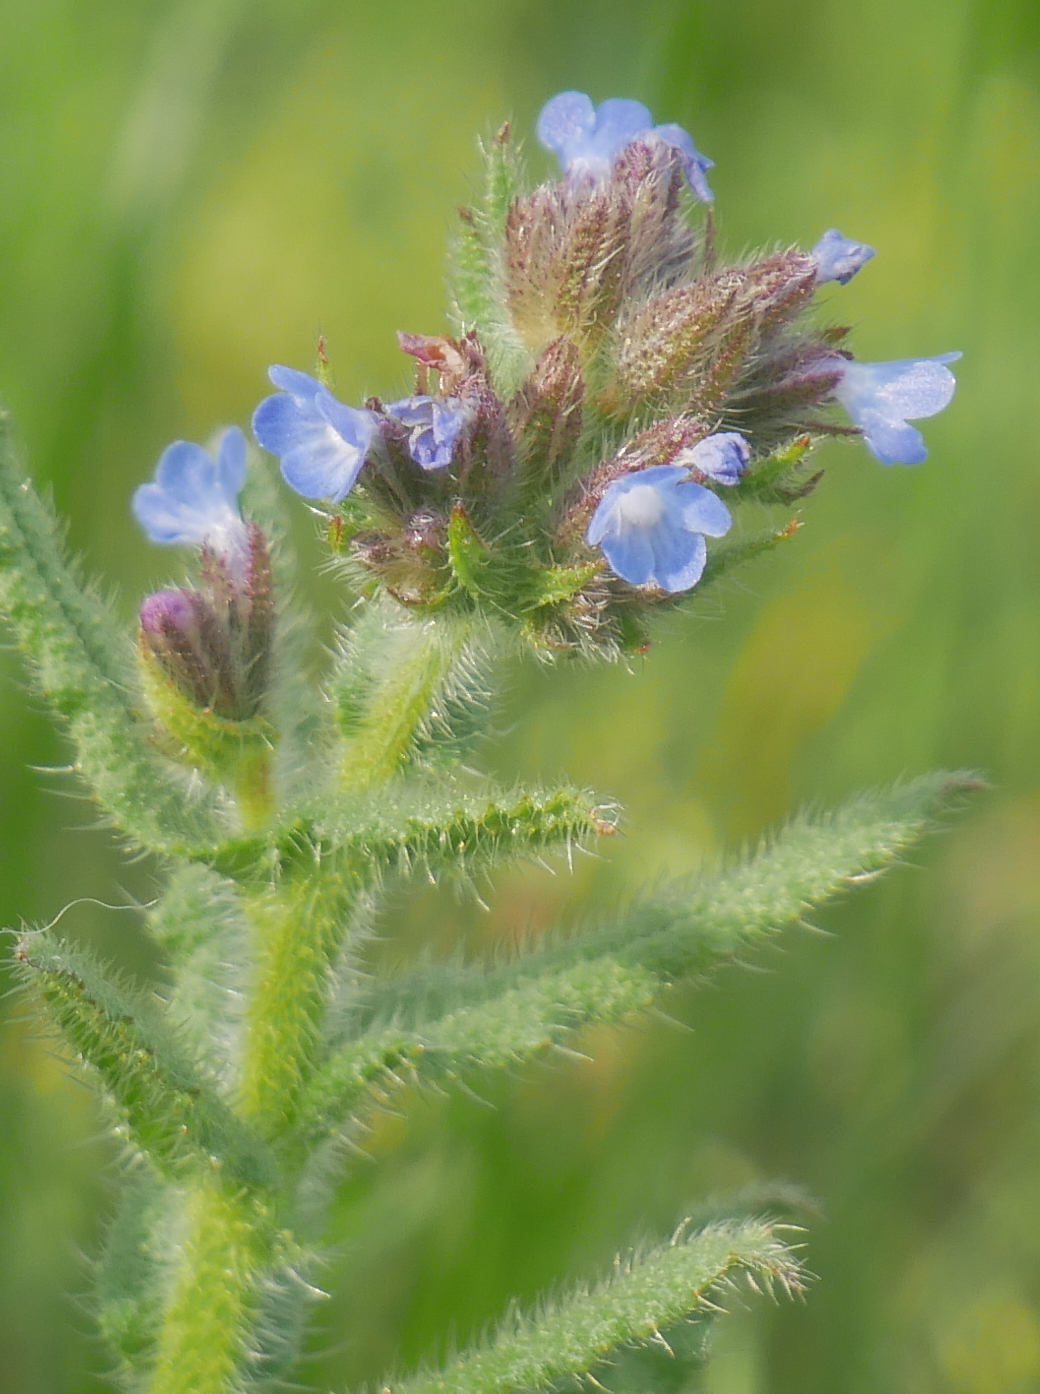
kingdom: Plantae
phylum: Tracheophyta
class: Magnoliopsida
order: Boraginales
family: Boraginaceae
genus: Lycopsis
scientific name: Lycopsis arvensis
